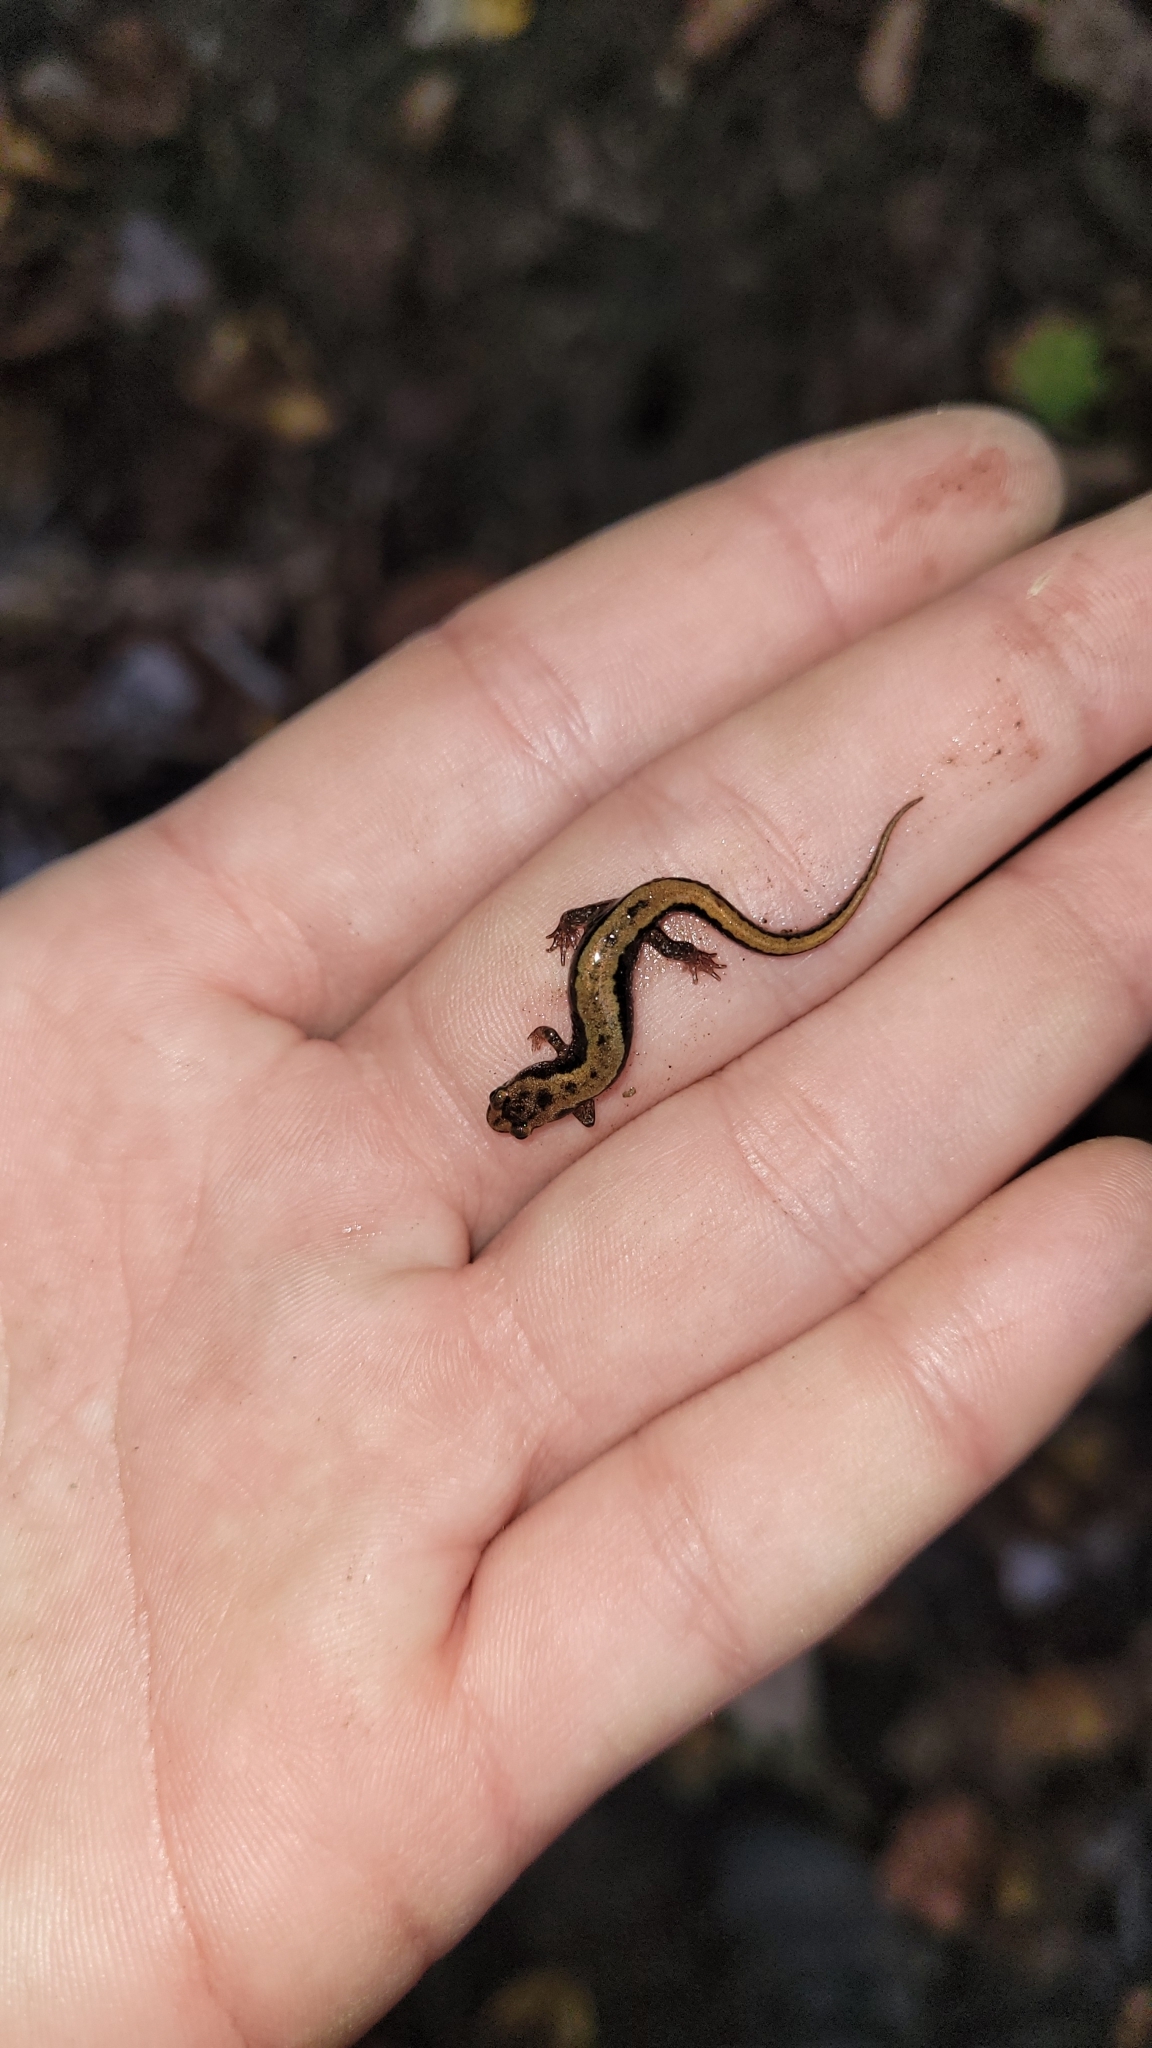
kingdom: Animalia
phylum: Chordata
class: Amphibia
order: Caudata
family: Plethodontidae
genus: Desmognathus
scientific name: Desmognathus ochrophaeus
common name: Allegheny mountain dusky salamander
